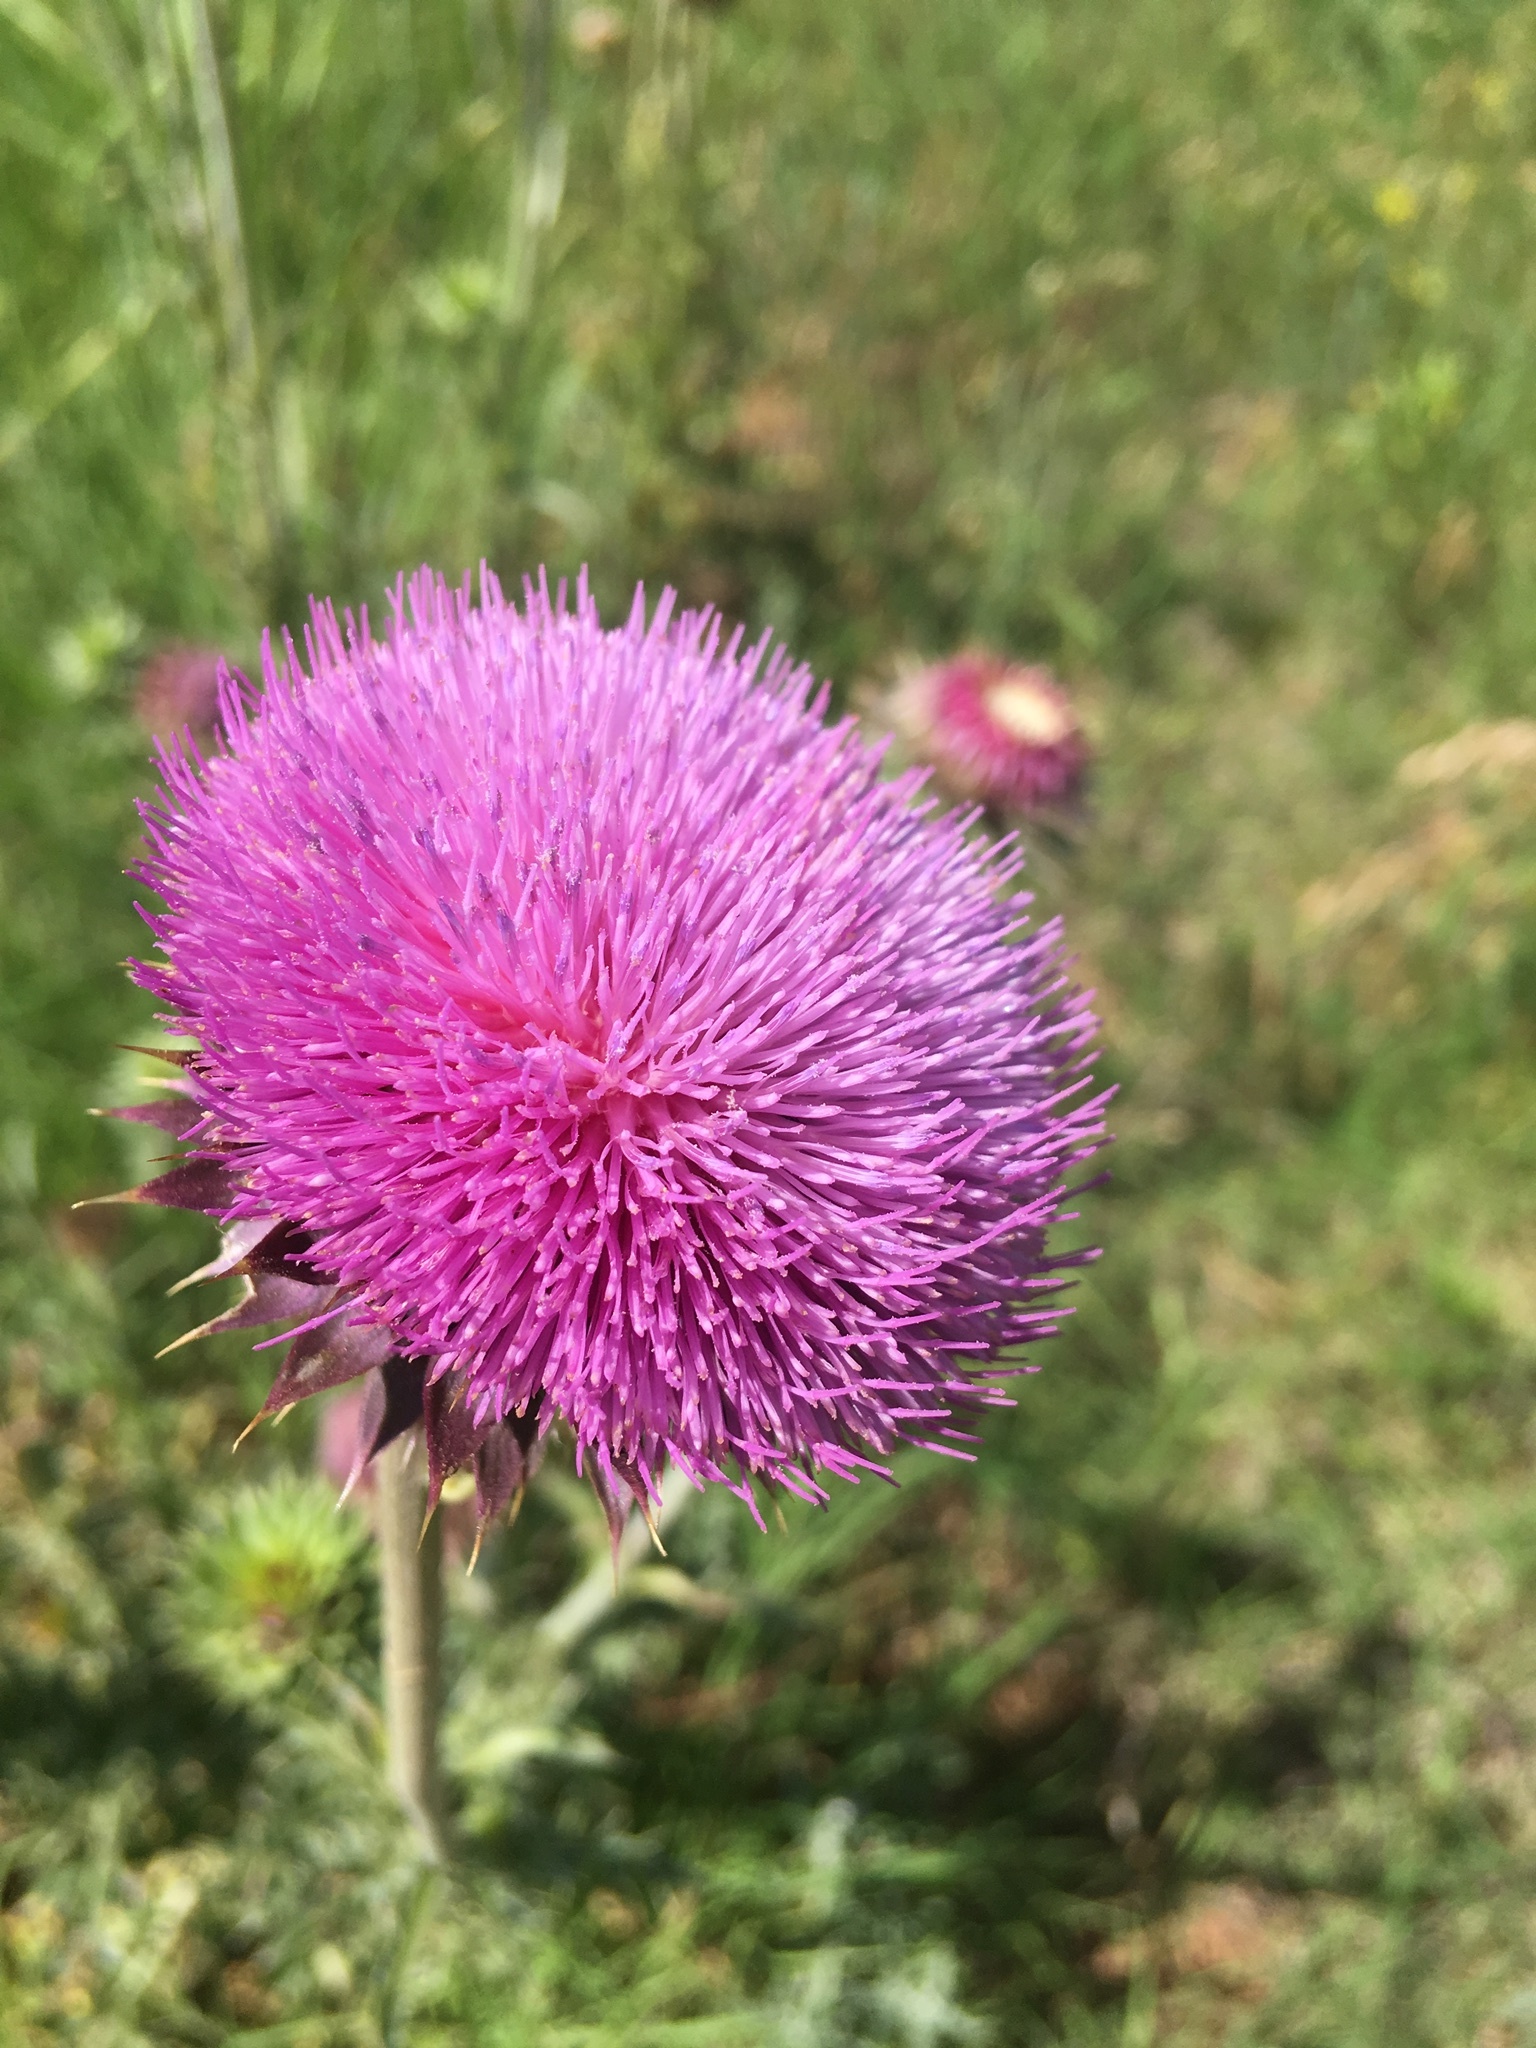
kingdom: Plantae
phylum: Tracheophyta
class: Magnoliopsida
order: Asterales
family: Asteraceae
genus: Carduus
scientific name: Carduus nutans
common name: Musk thistle
